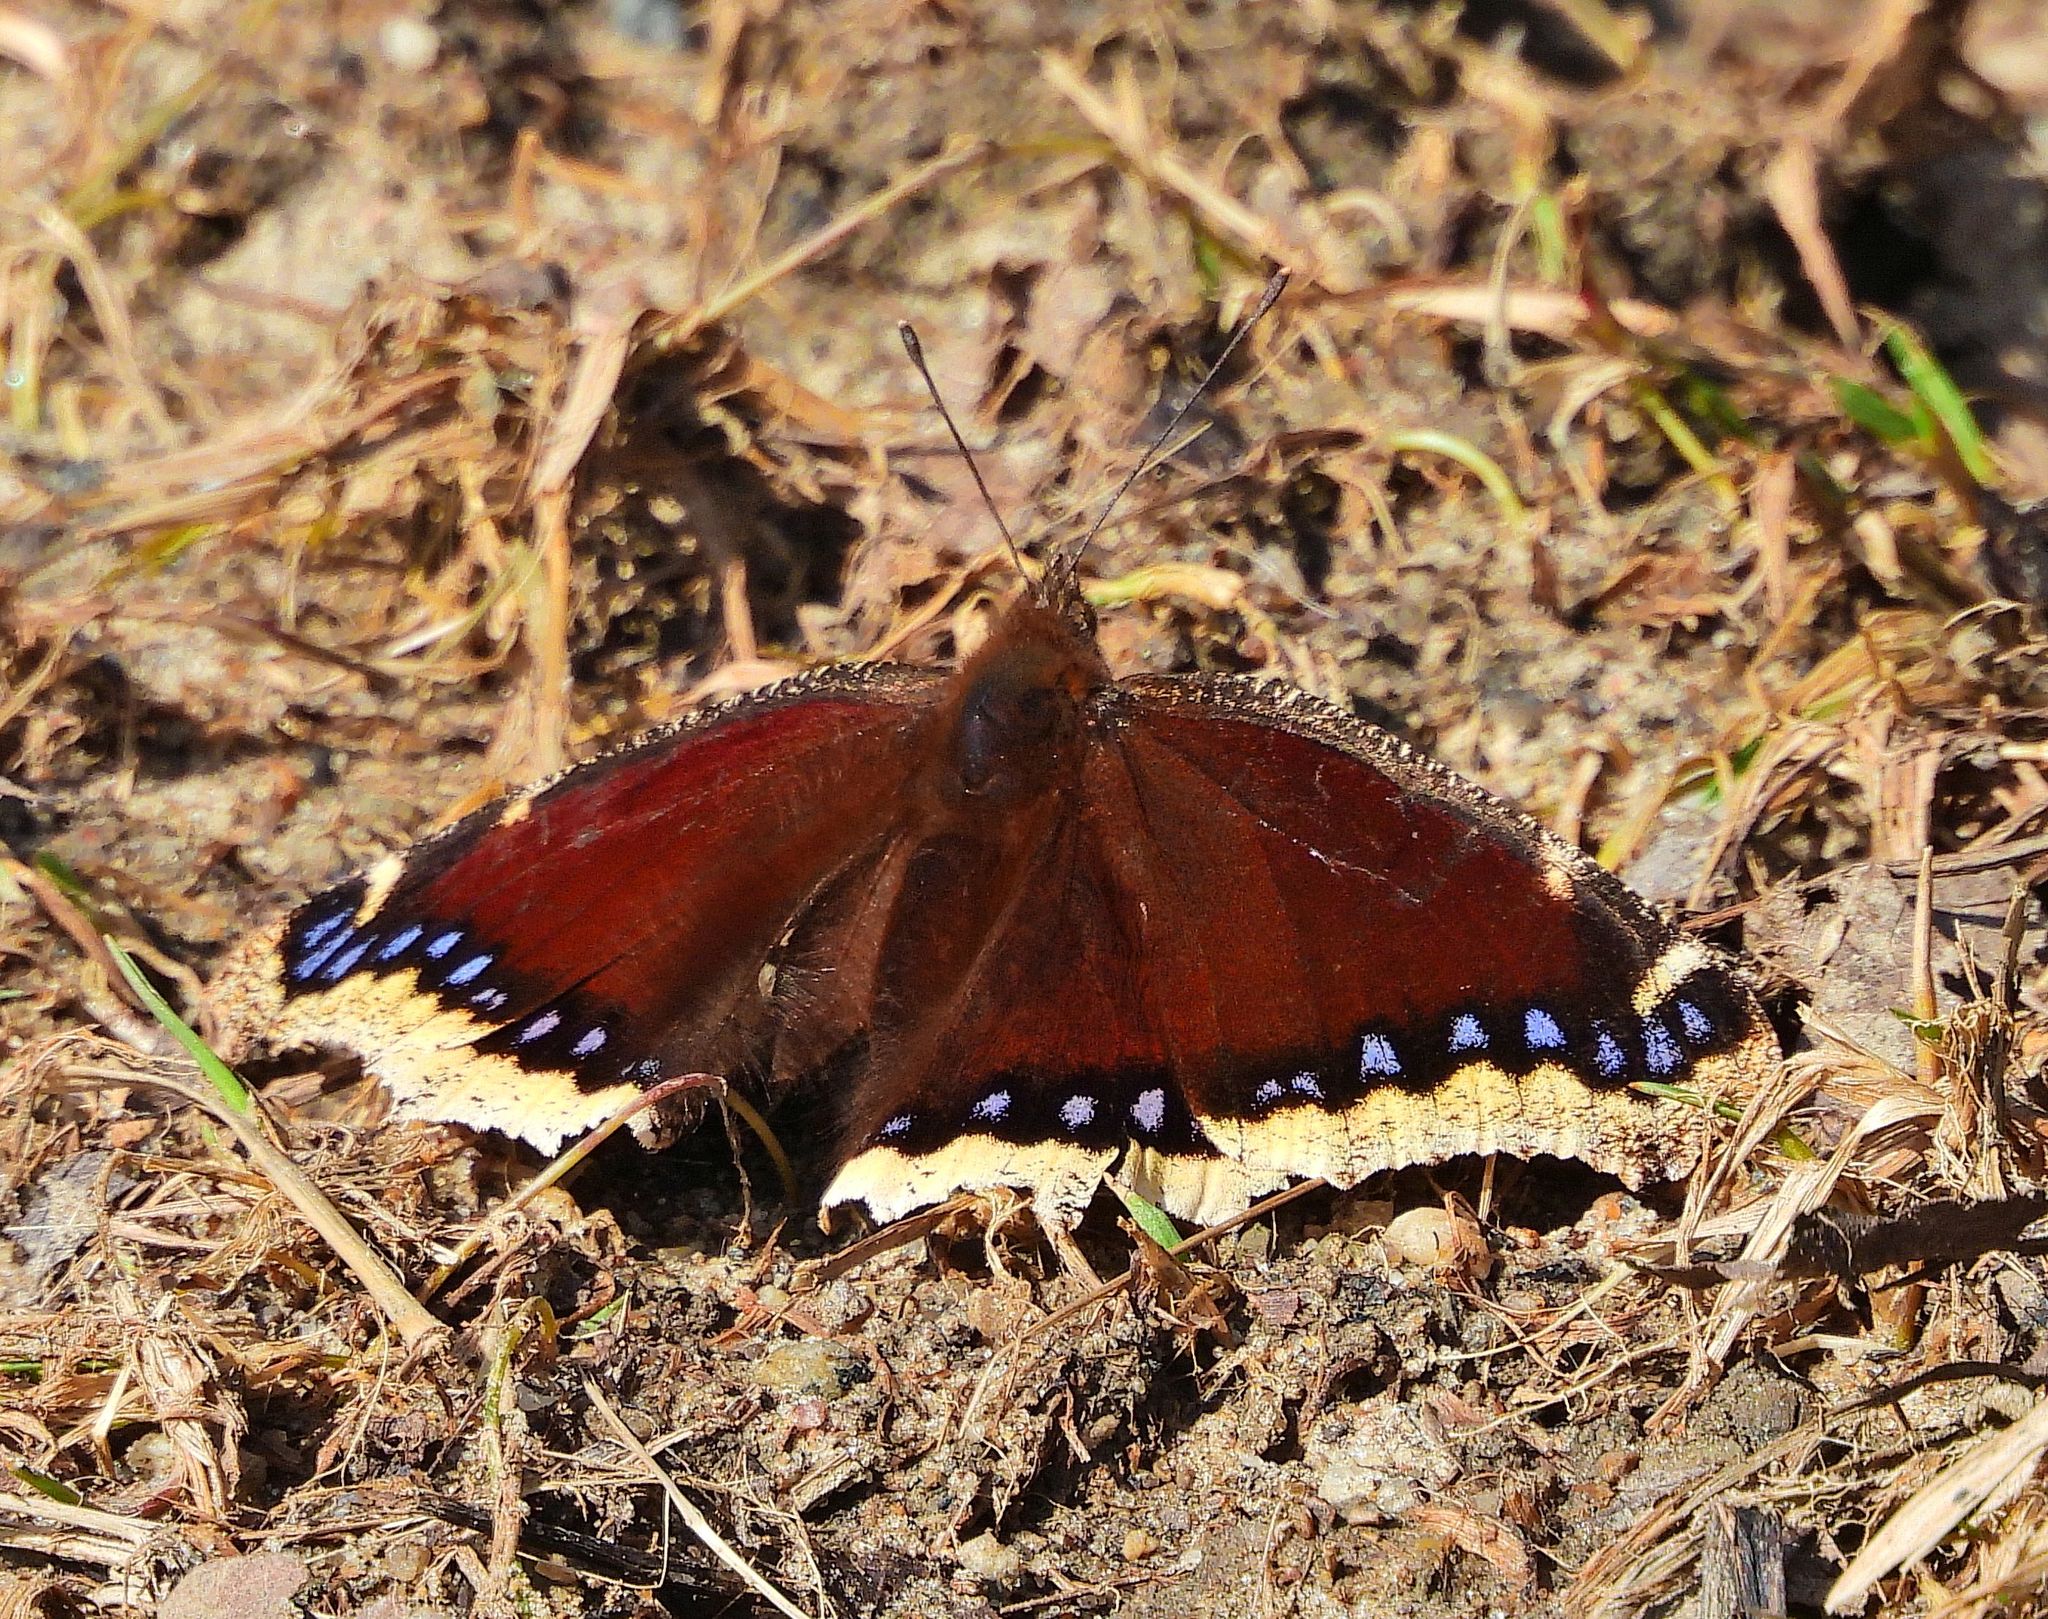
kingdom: Animalia
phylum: Arthropoda
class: Insecta
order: Lepidoptera
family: Nymphalidae
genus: Nymphalis
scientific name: Nymphalis antiopa
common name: Camberwell beauty
